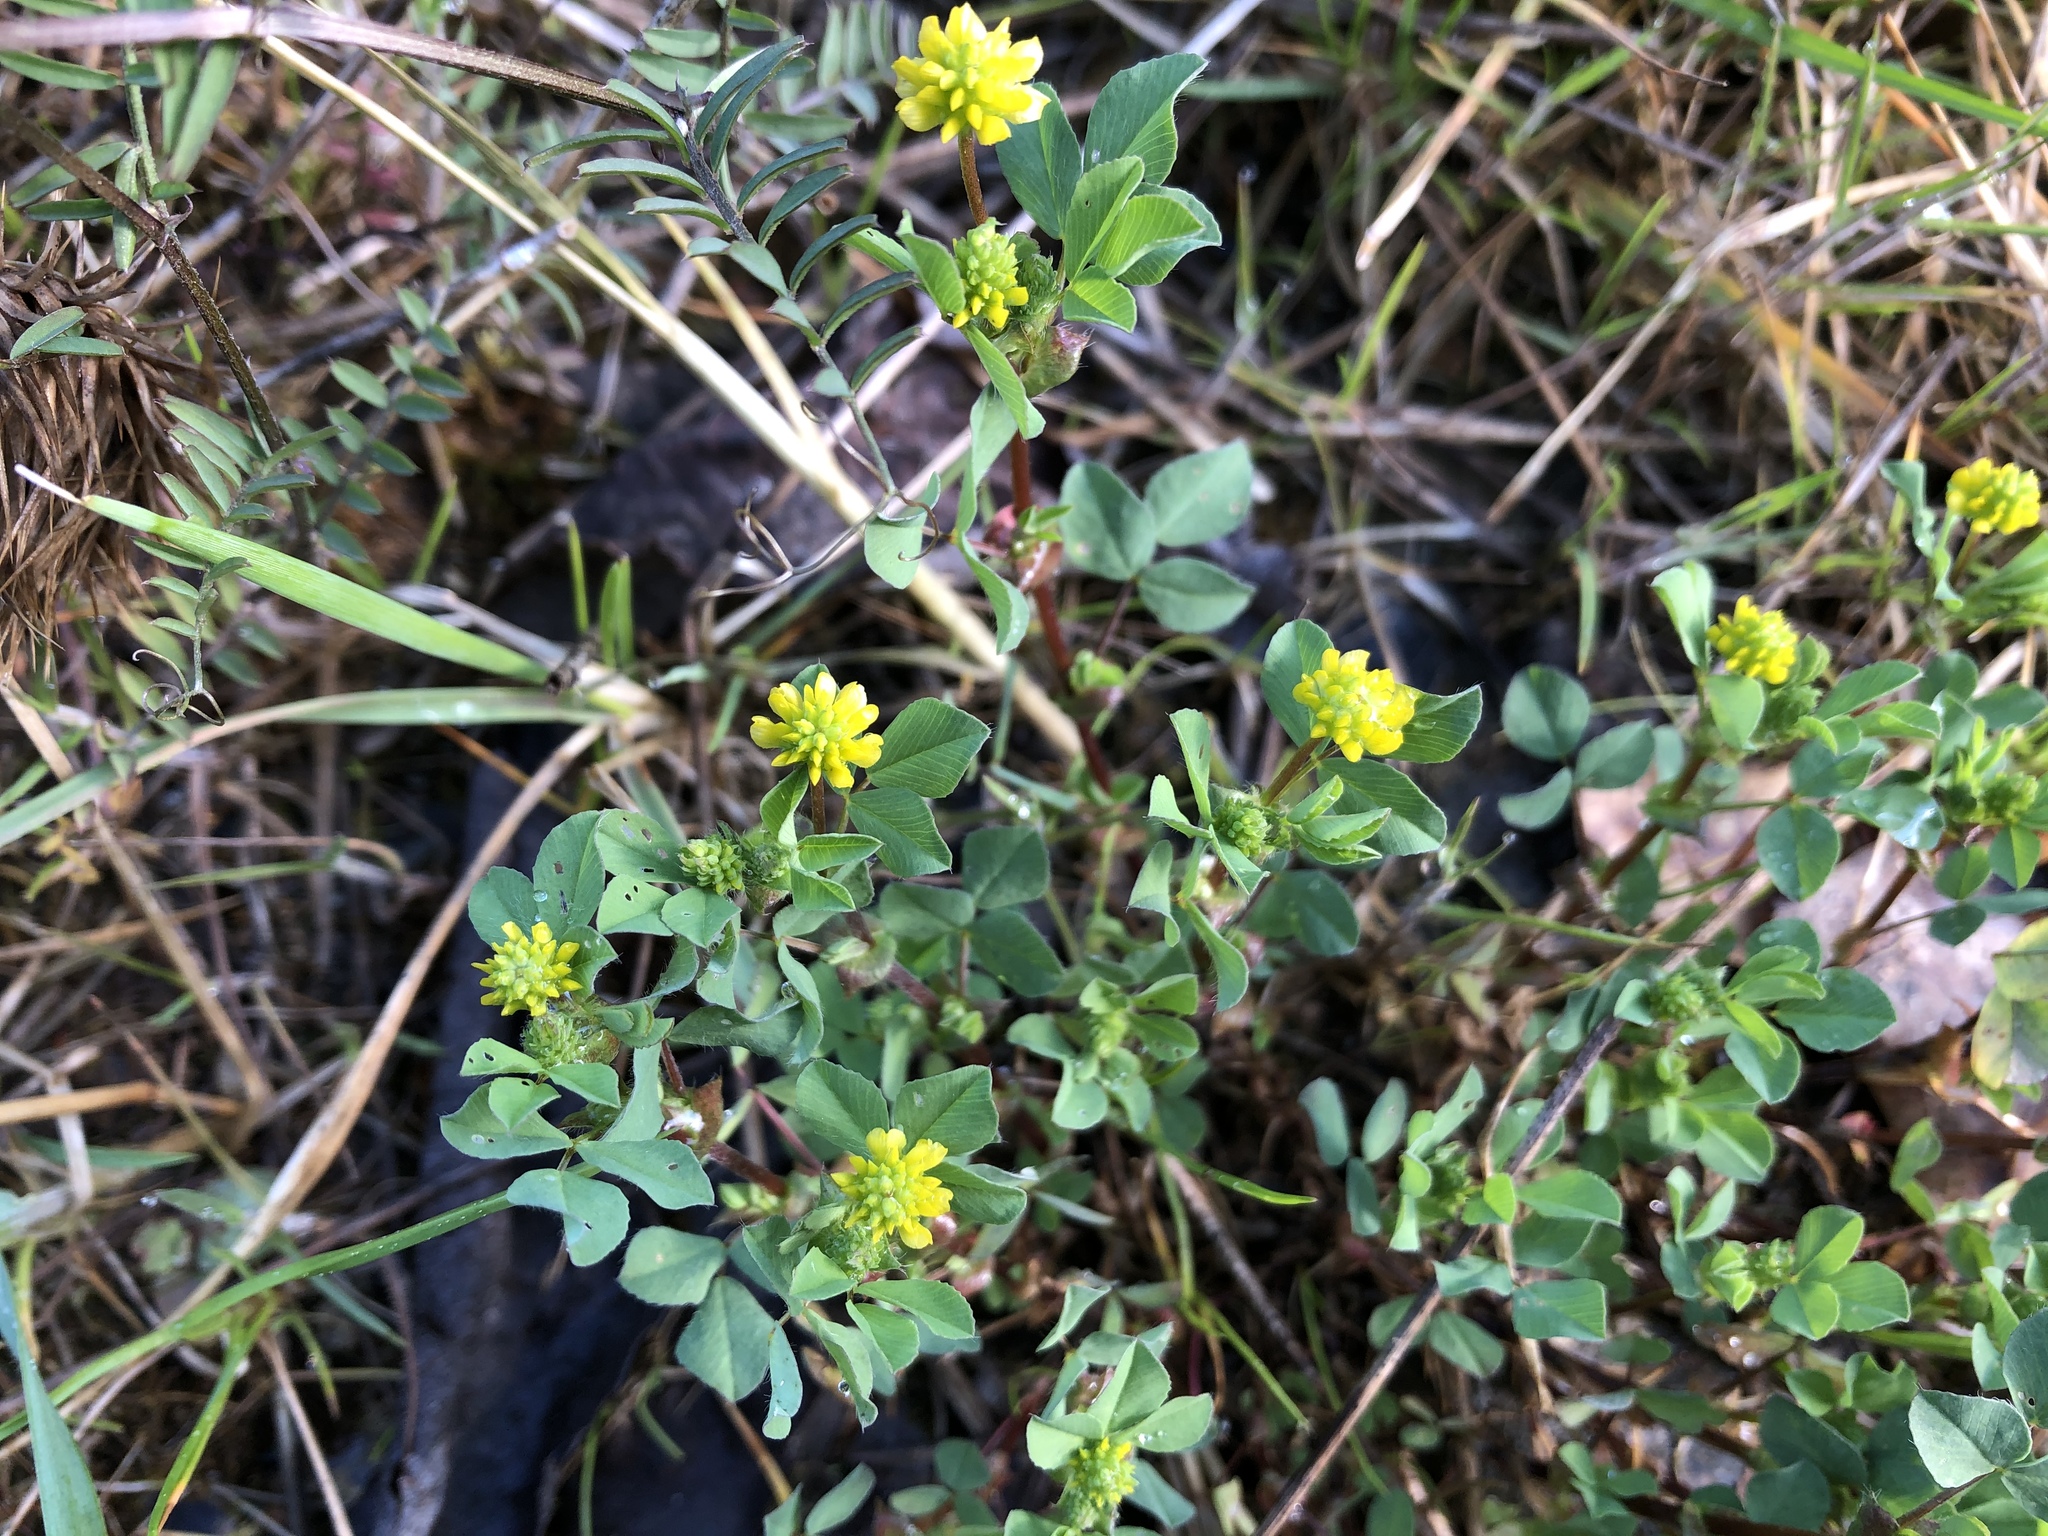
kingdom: Plantae
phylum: Tracheophyta
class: Magnoliopsida
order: Fabales
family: Fabaceae
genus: Trifolium
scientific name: Trifolium dubium
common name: Suckling clover
